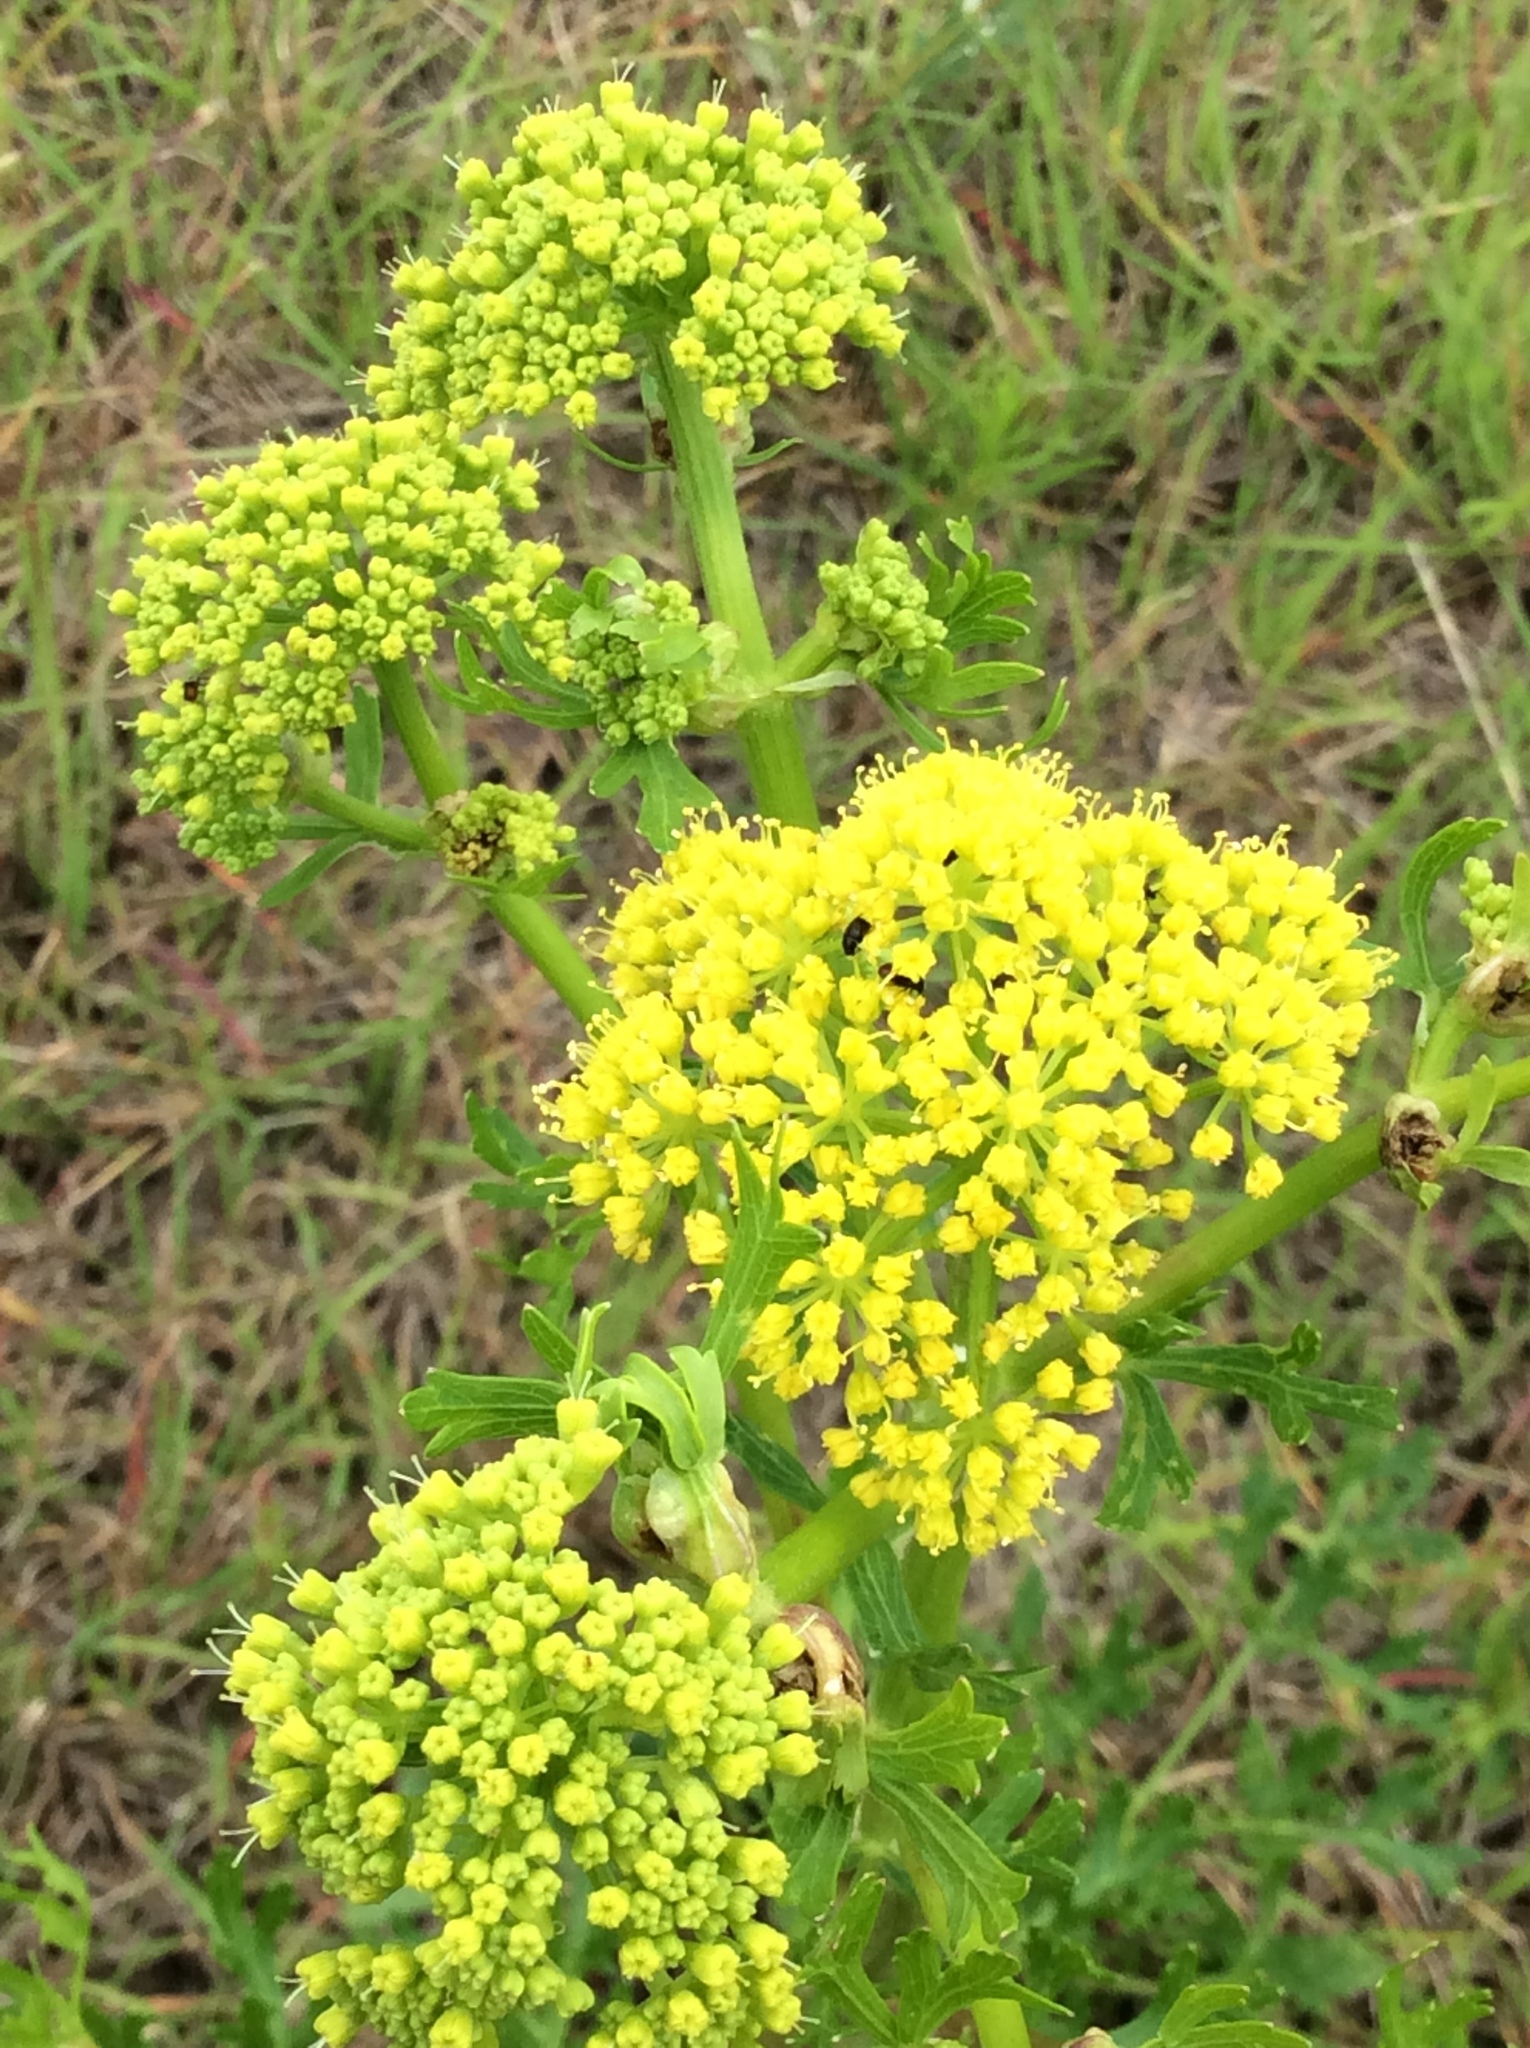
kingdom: Plantae
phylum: Tracheophyta
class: Magnoliopsida
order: Apiales
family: Apiaceae
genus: Polytaenia
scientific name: Polytaenia texana
